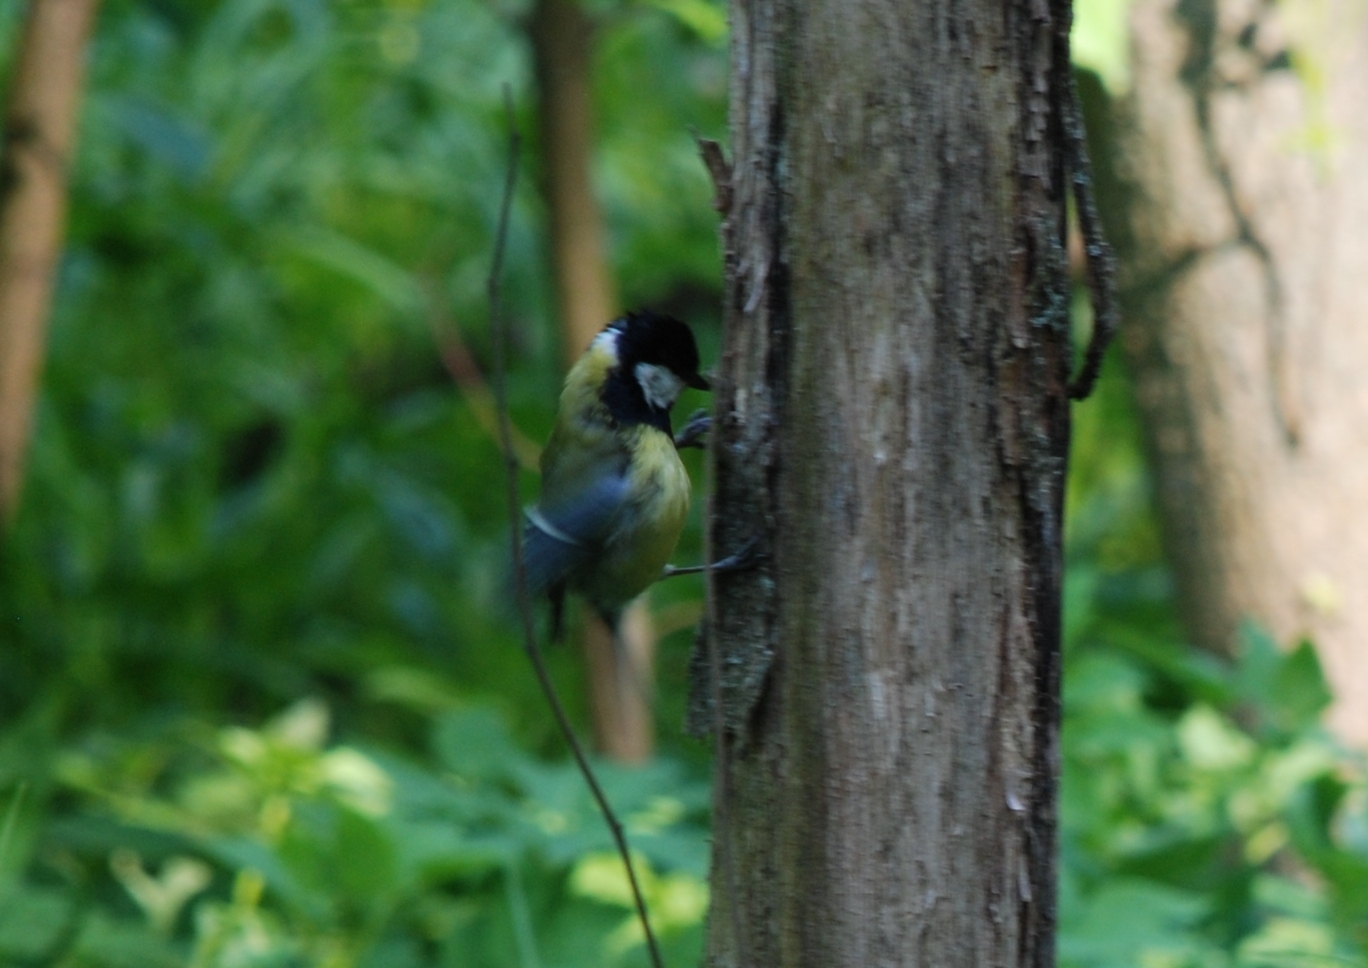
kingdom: Animalia
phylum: Chordata
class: Aves
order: Passeriformes
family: Paridae
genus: Parus
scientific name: Parus major
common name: Great tit
